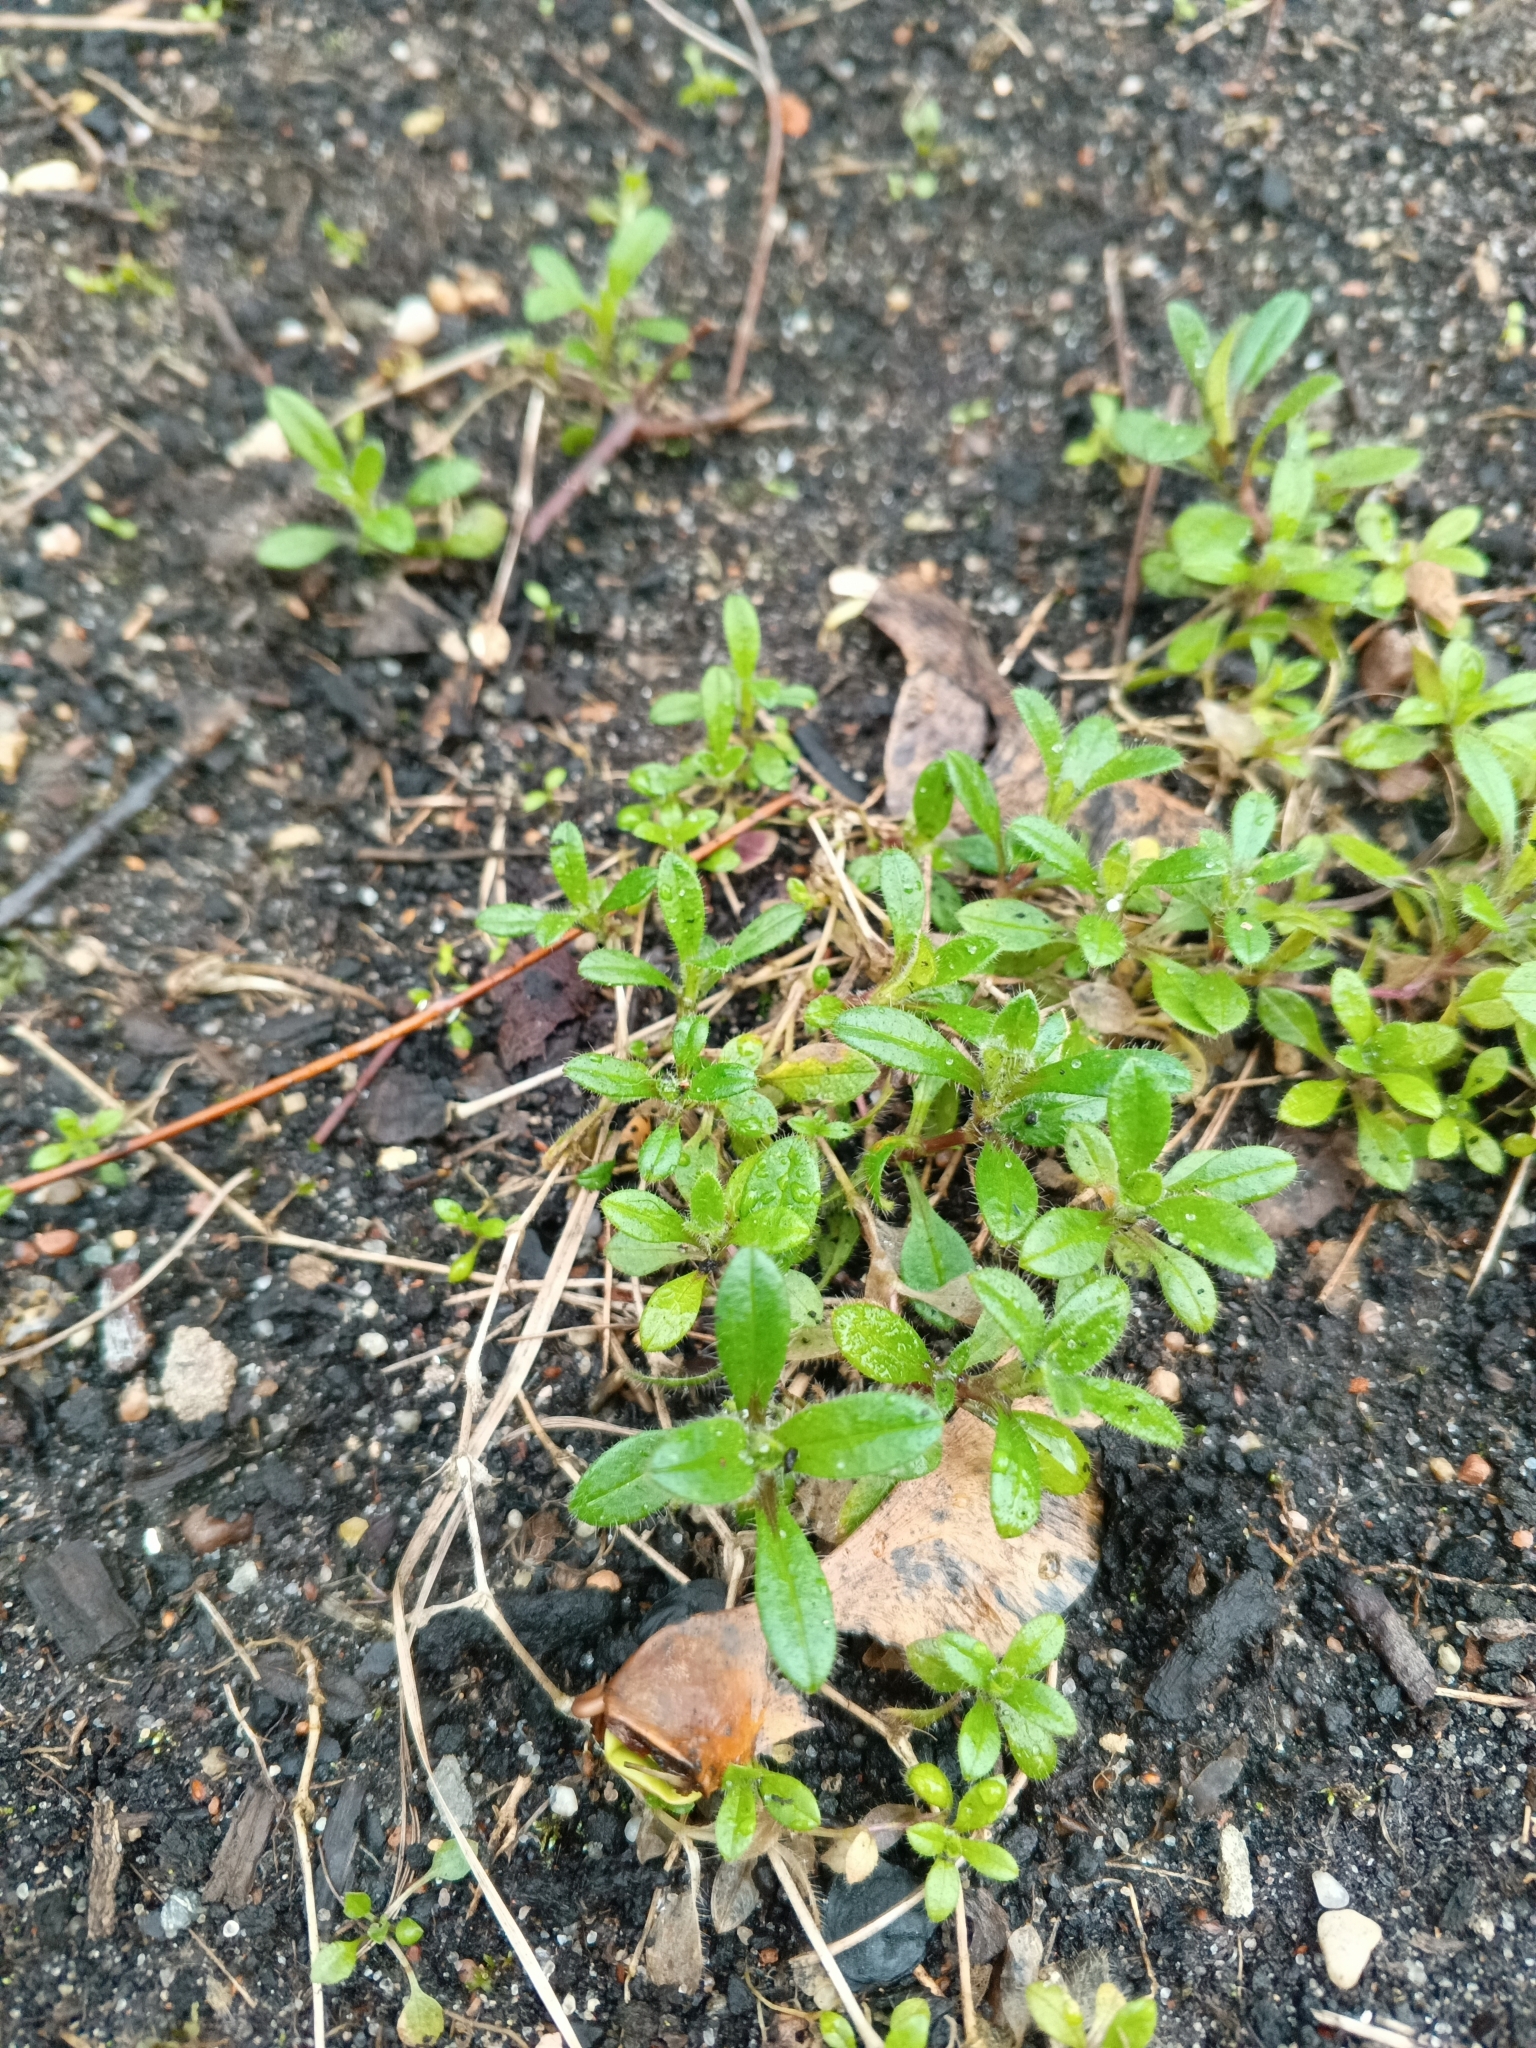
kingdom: Plantae
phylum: Tracheophyta
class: Magnoliopsida
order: Caryophyllales
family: Caryophyllaceae
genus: Cerastium
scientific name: Cerastium holosteoides
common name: Big chickweed
